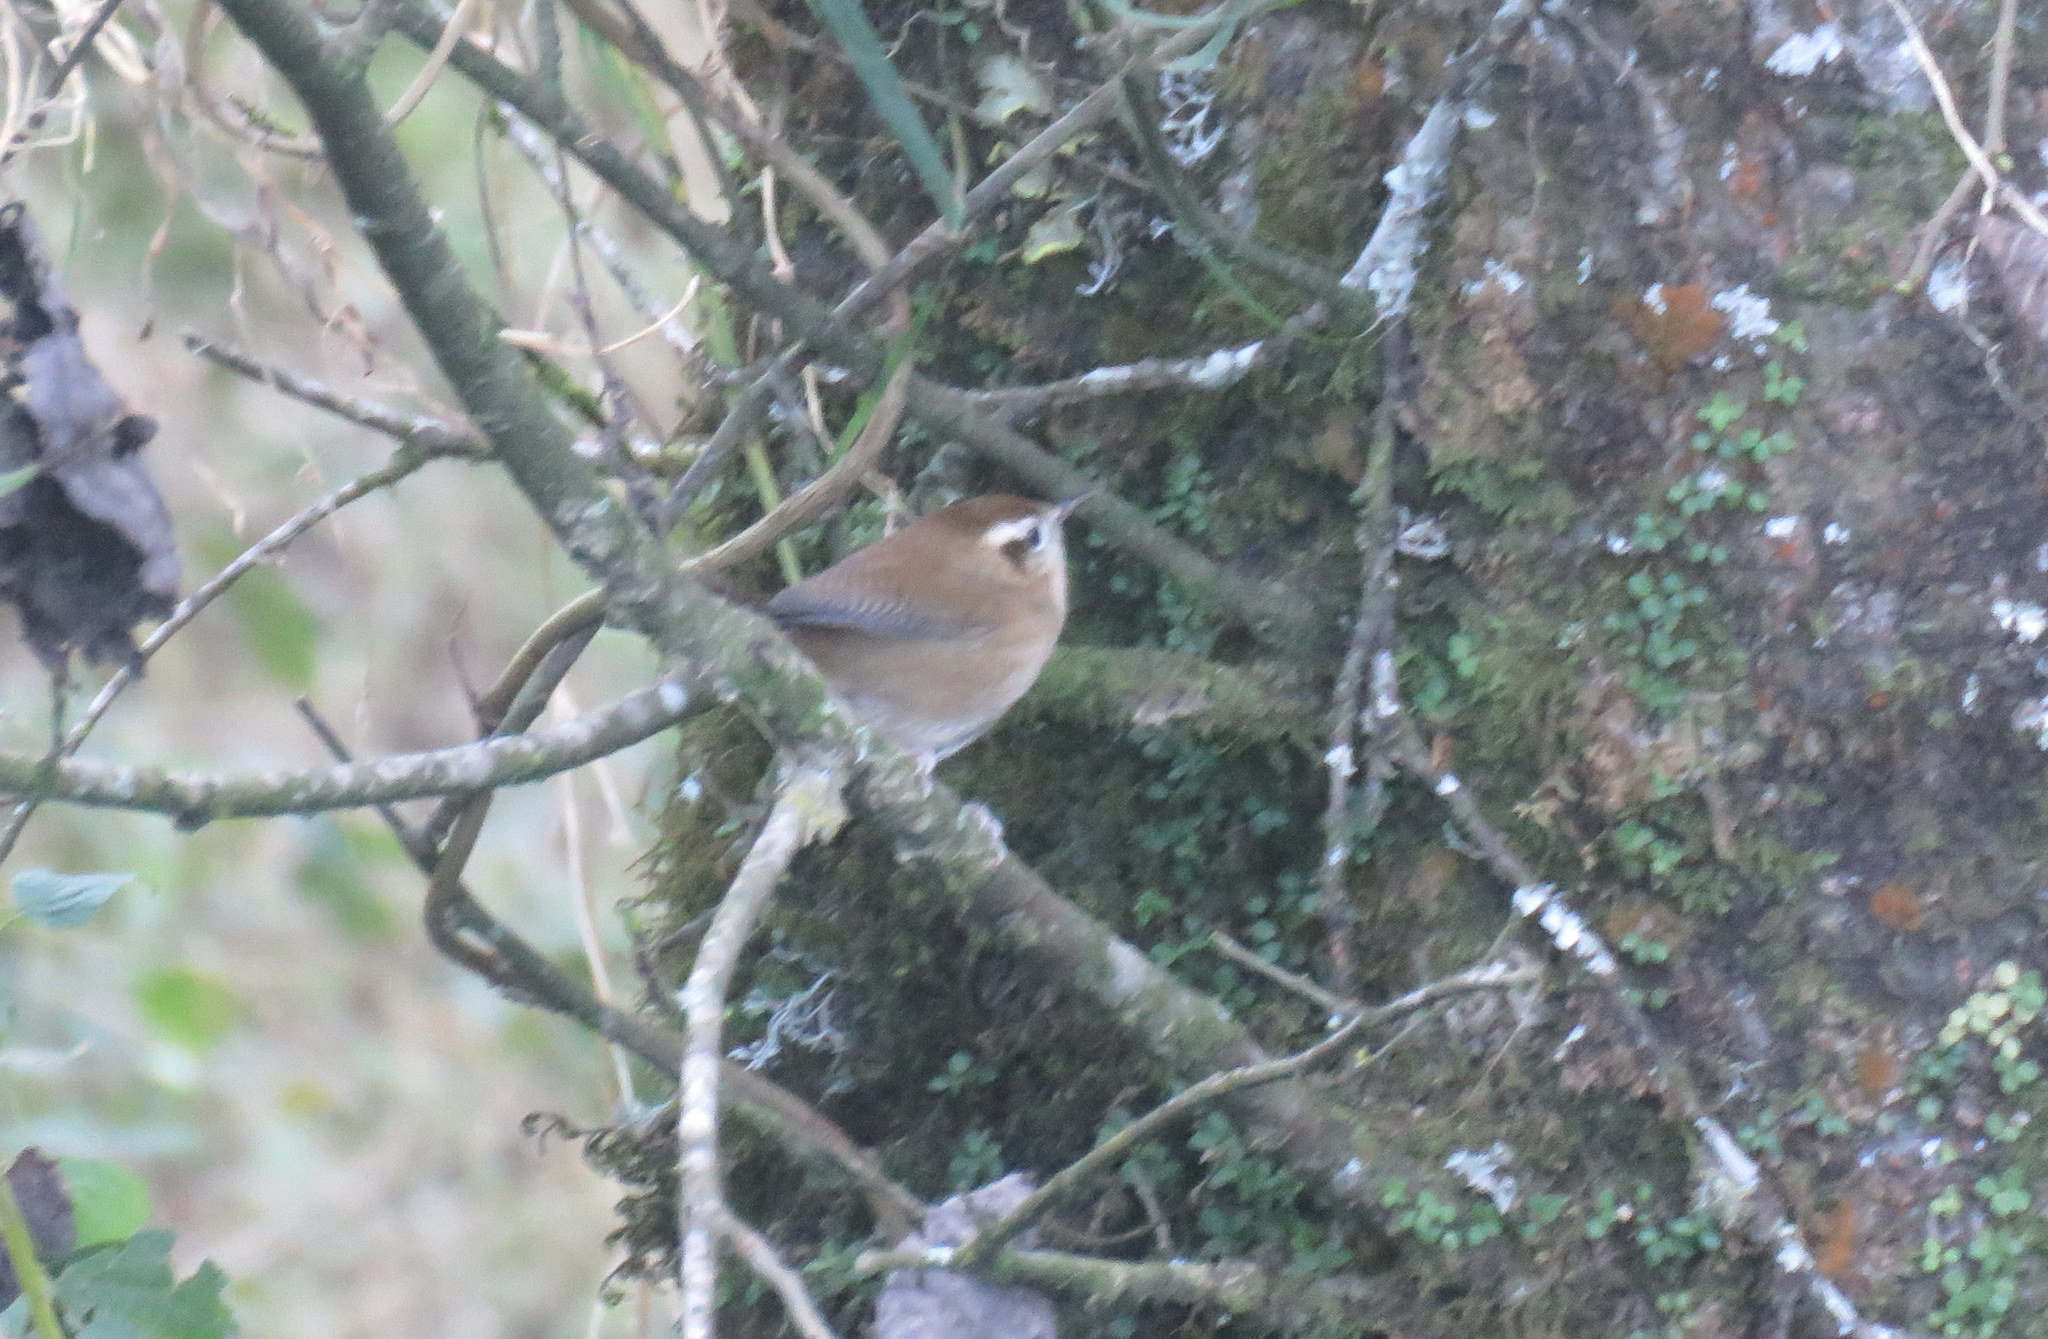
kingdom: Animalia
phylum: Chordata
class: Aves
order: Passeriformes
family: Troglodytidae
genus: Troglodytes
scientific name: Troglodytes solstitialis
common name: Mountain wren
